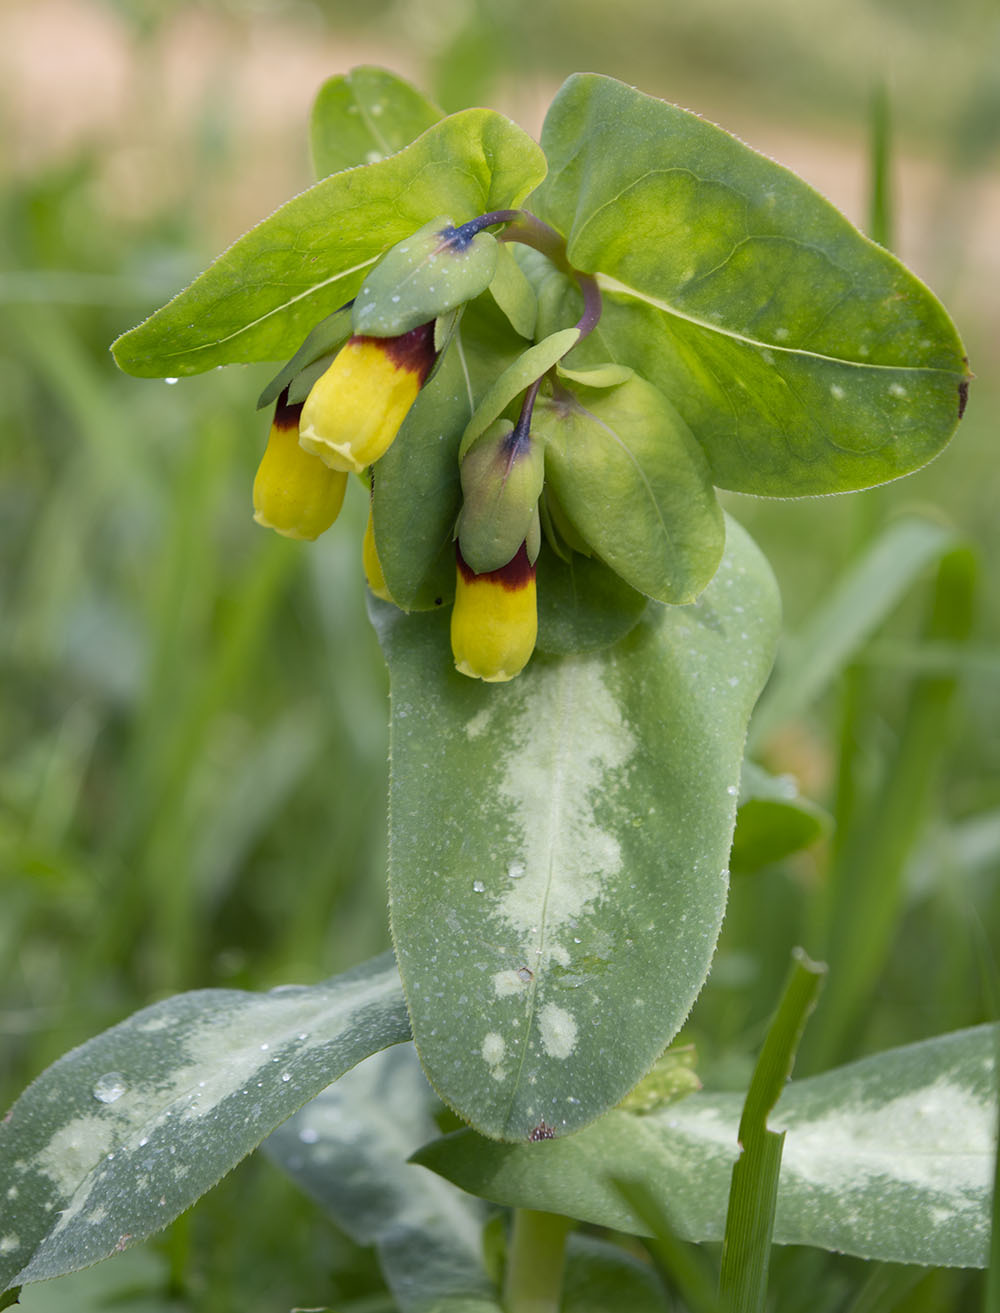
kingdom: Plantae
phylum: Tracheophyta
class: Magnoliopsida
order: Boraginales
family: Boraginaceae
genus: Cerinthe
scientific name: Cerinthe major
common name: Greater honeywort
